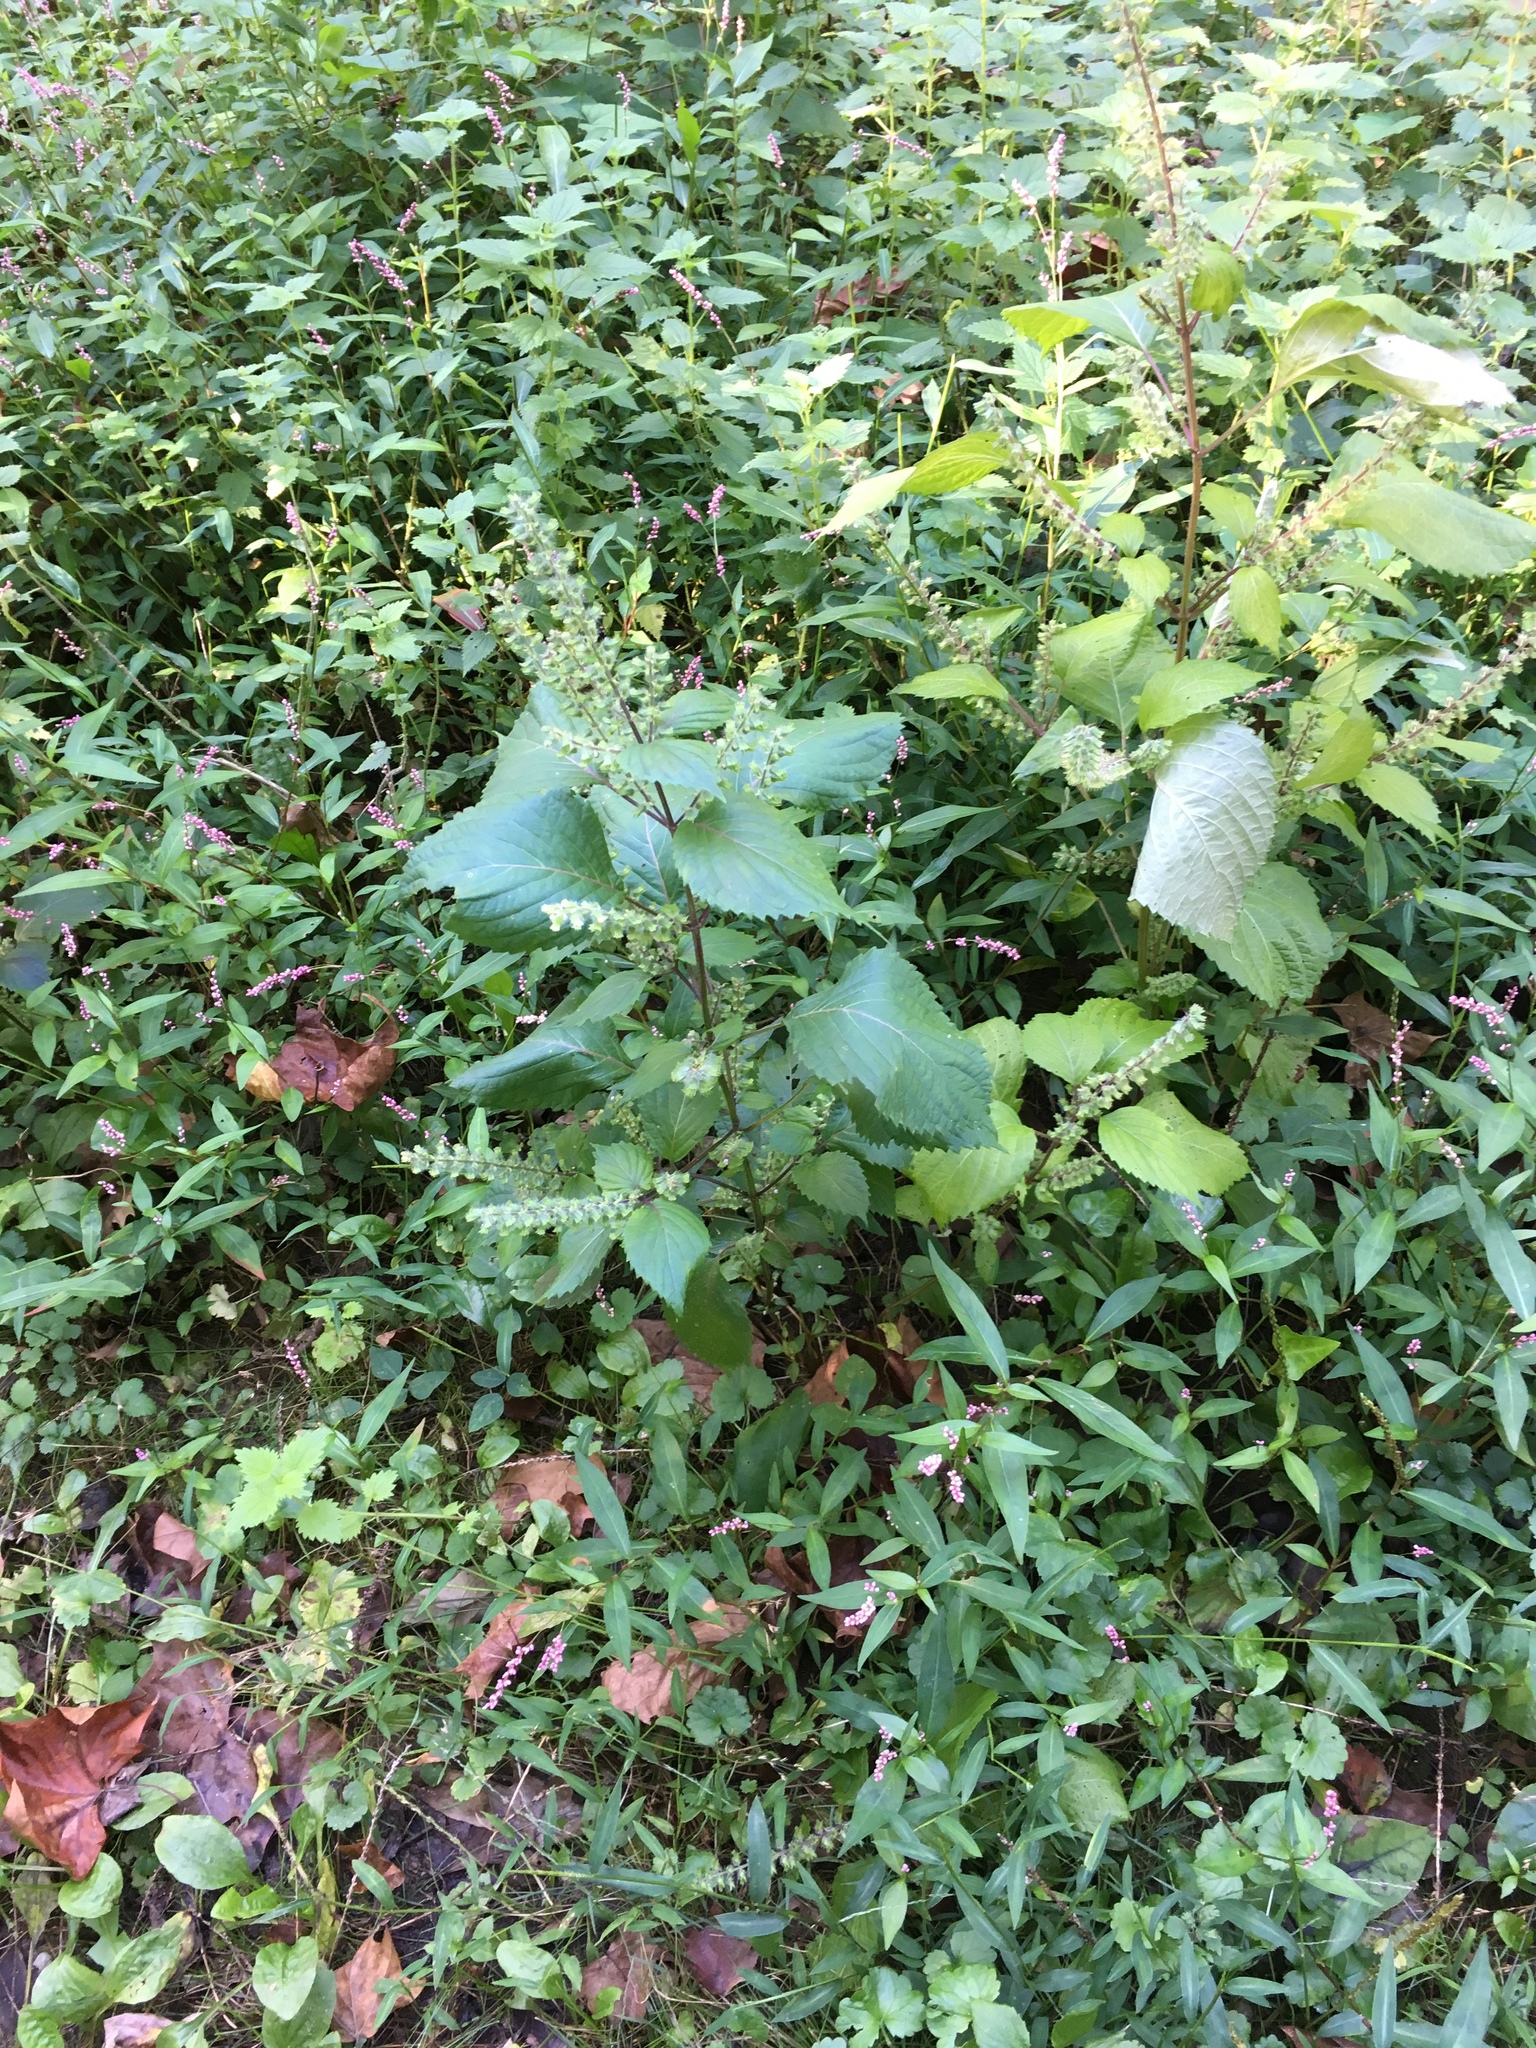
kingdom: Plantae
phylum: Tracheophyta
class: Magnoliopsida
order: Lamiales
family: Lamiaceae
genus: Perilla
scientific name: Perilla frutescens
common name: Perilla
